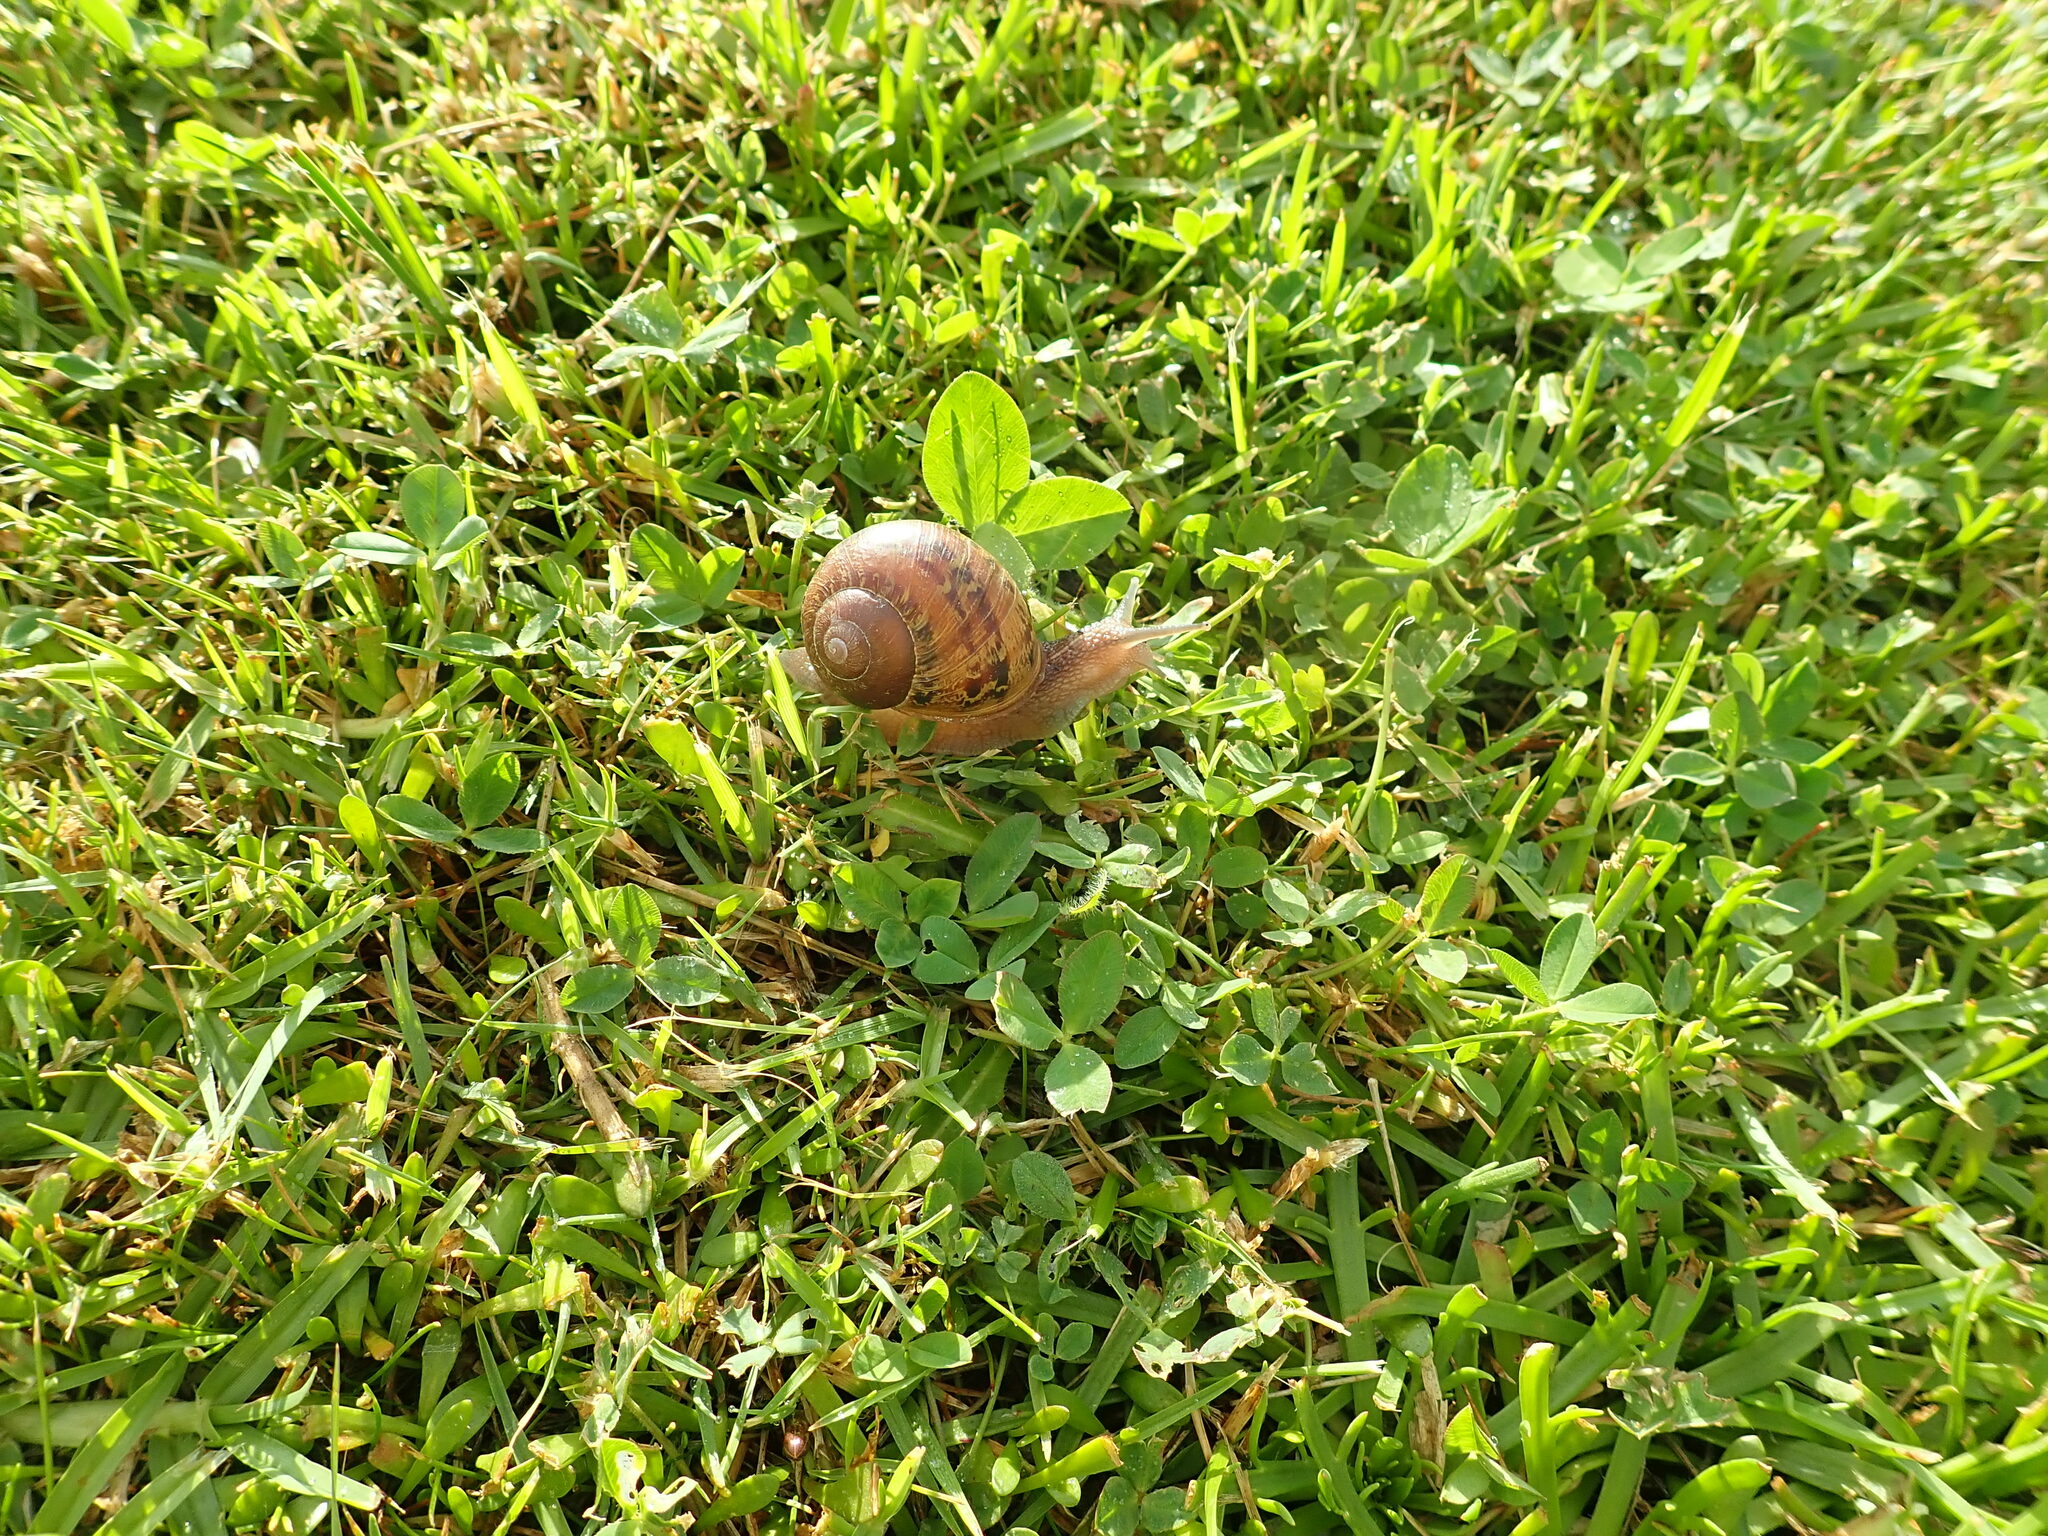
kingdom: Animalia
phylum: Mollusca
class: Gastropoda
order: Stylommatophora
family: Helicidae
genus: Cornu
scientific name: Cornu aspersum
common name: Brown garden snail
